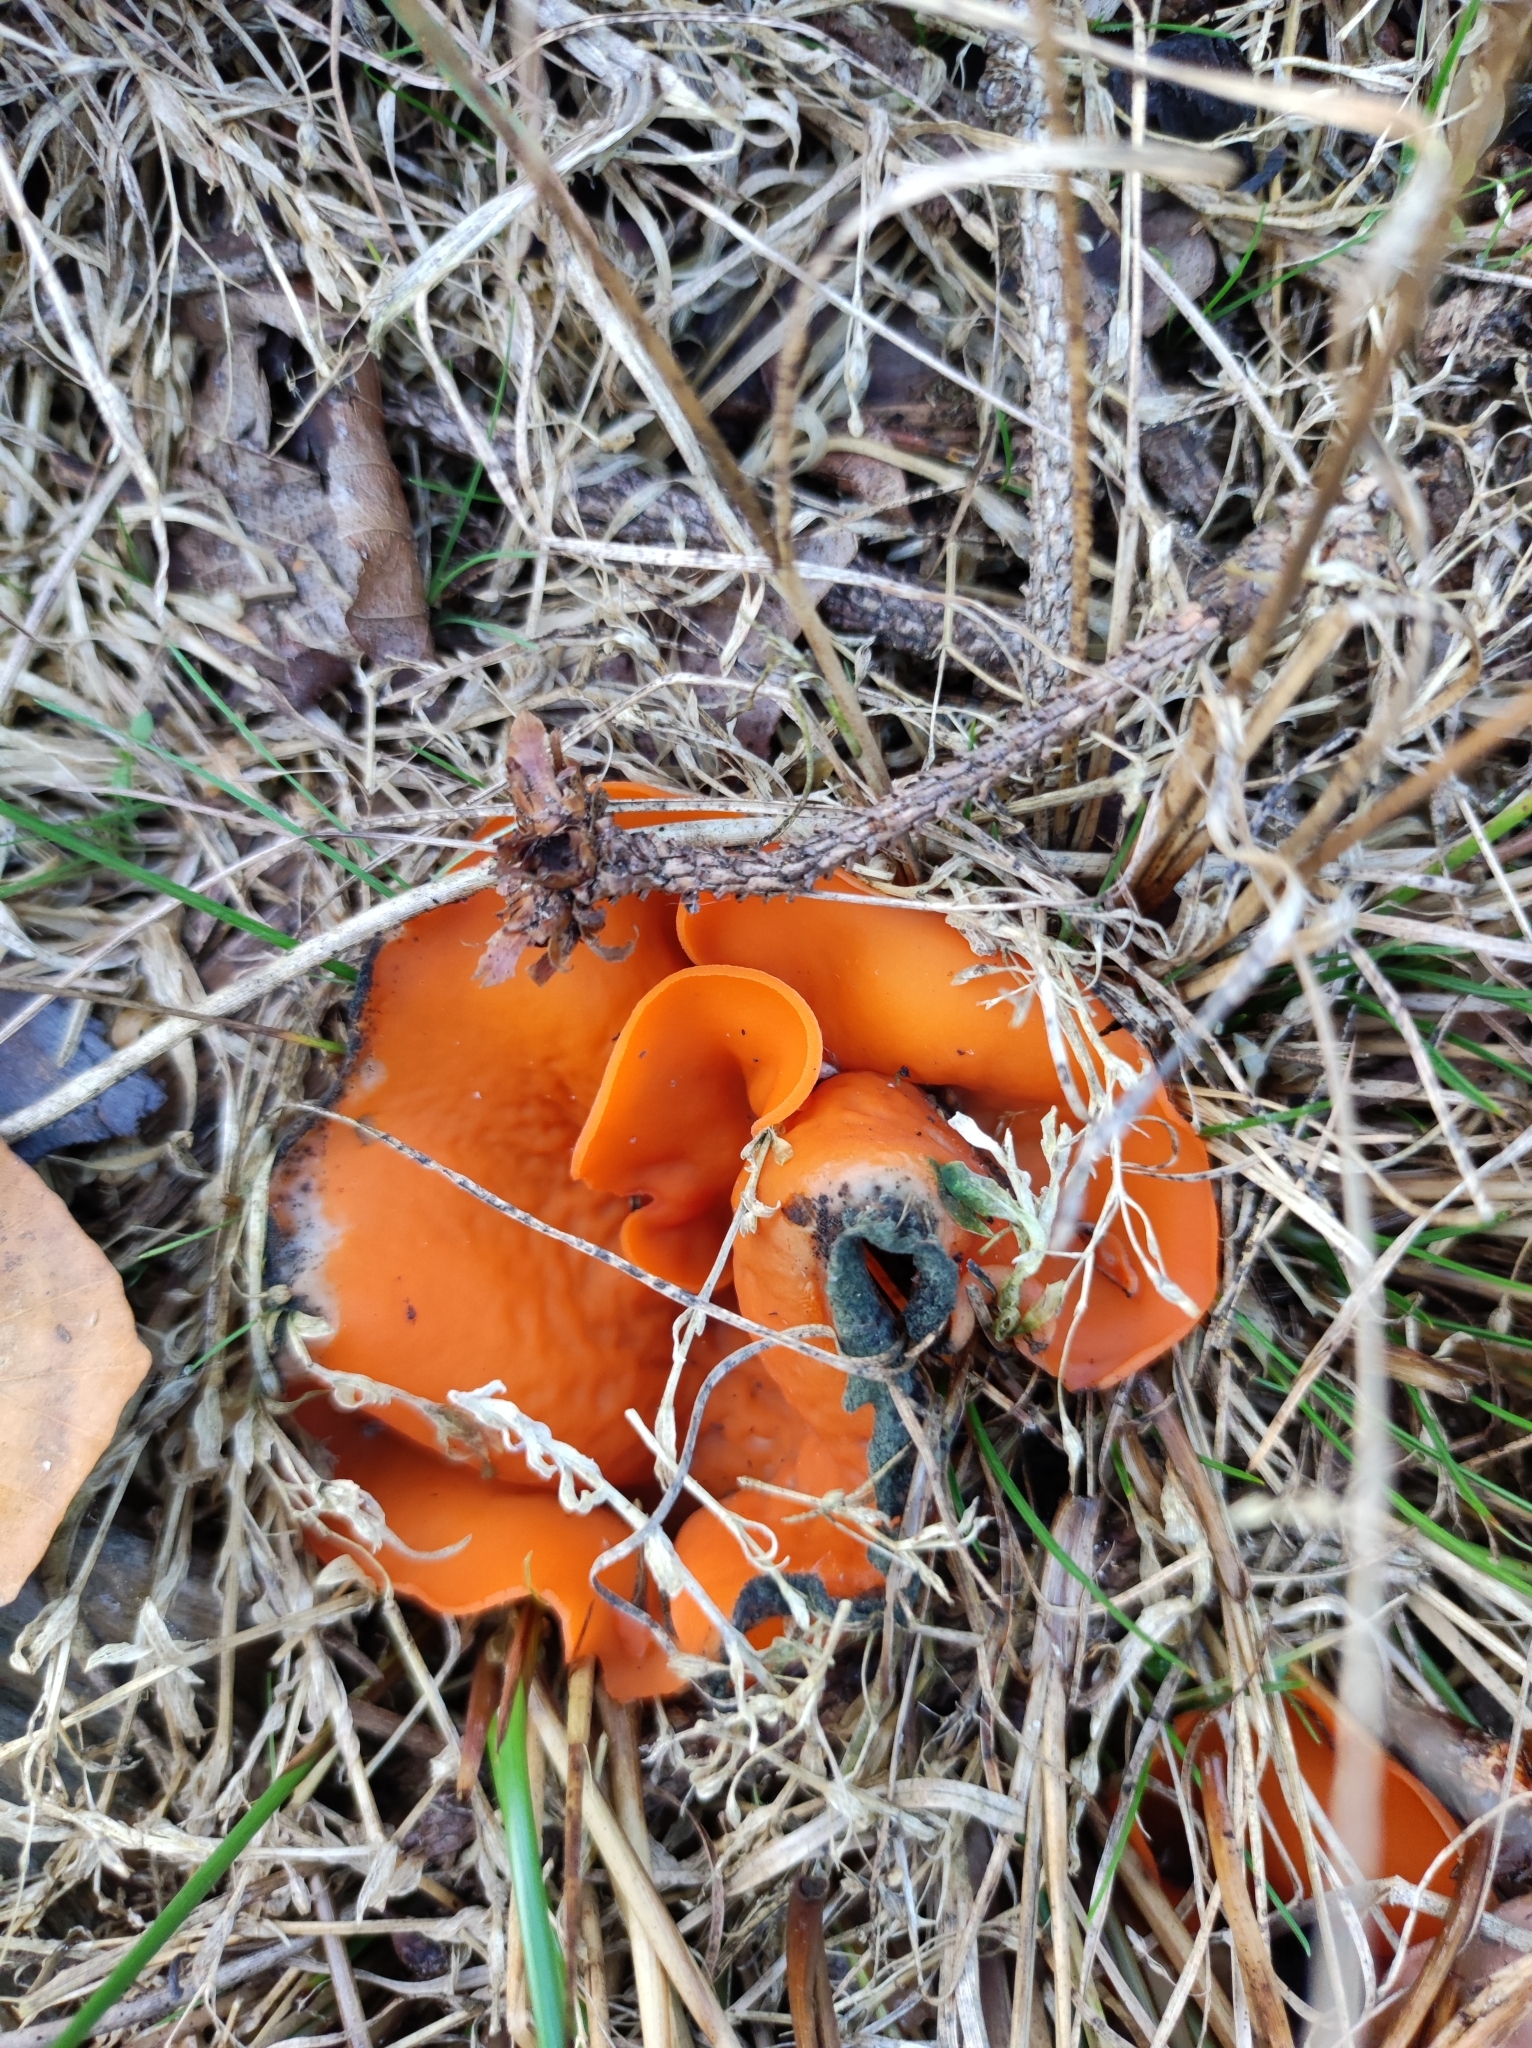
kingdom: Fungi
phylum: Ascomycota
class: Pezizomycetes
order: Pezizales
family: Pyronemataceae
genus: Aleuria
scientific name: Aleuria aurantia
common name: Orange peel fungus
